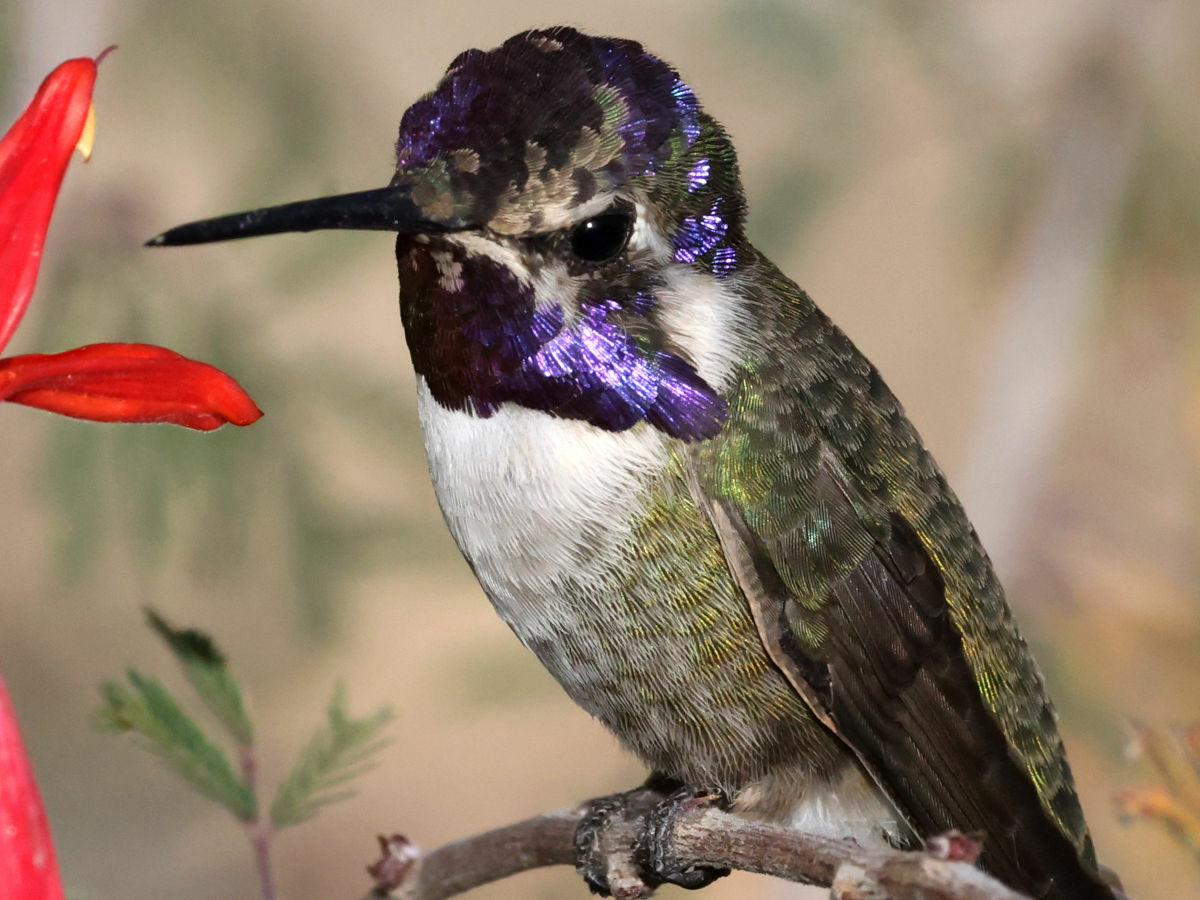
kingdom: Animalia
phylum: Chordata
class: Aves
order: Apodiformes
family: Trochilidae
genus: Calypte
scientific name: Calypte costae
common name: Costa's hummingbird
